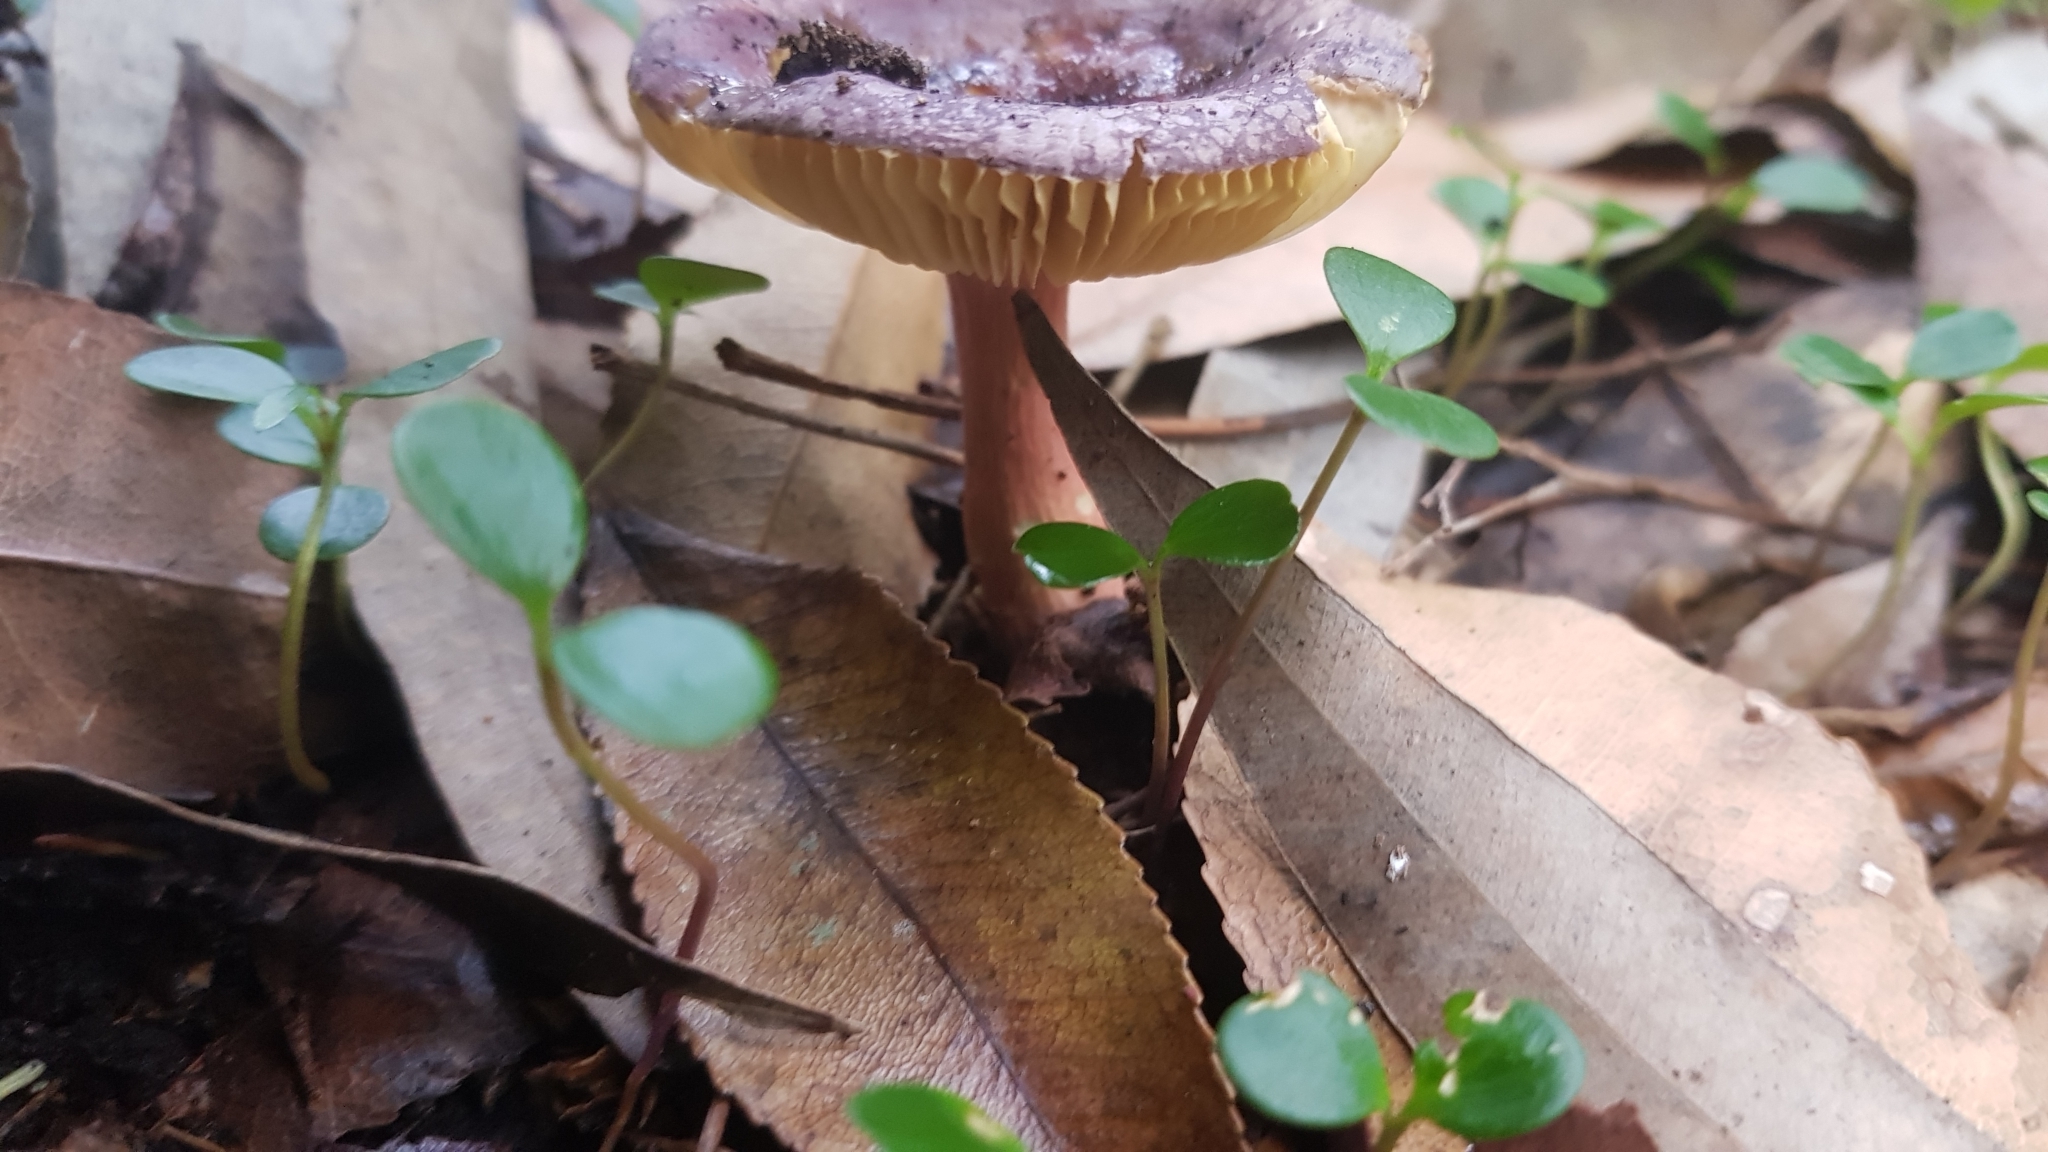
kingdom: Fungi
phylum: Basidiomycota
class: Agaricomycetes
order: Russulales
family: Russulaceae
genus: Russula
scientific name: Russula lenkunya
